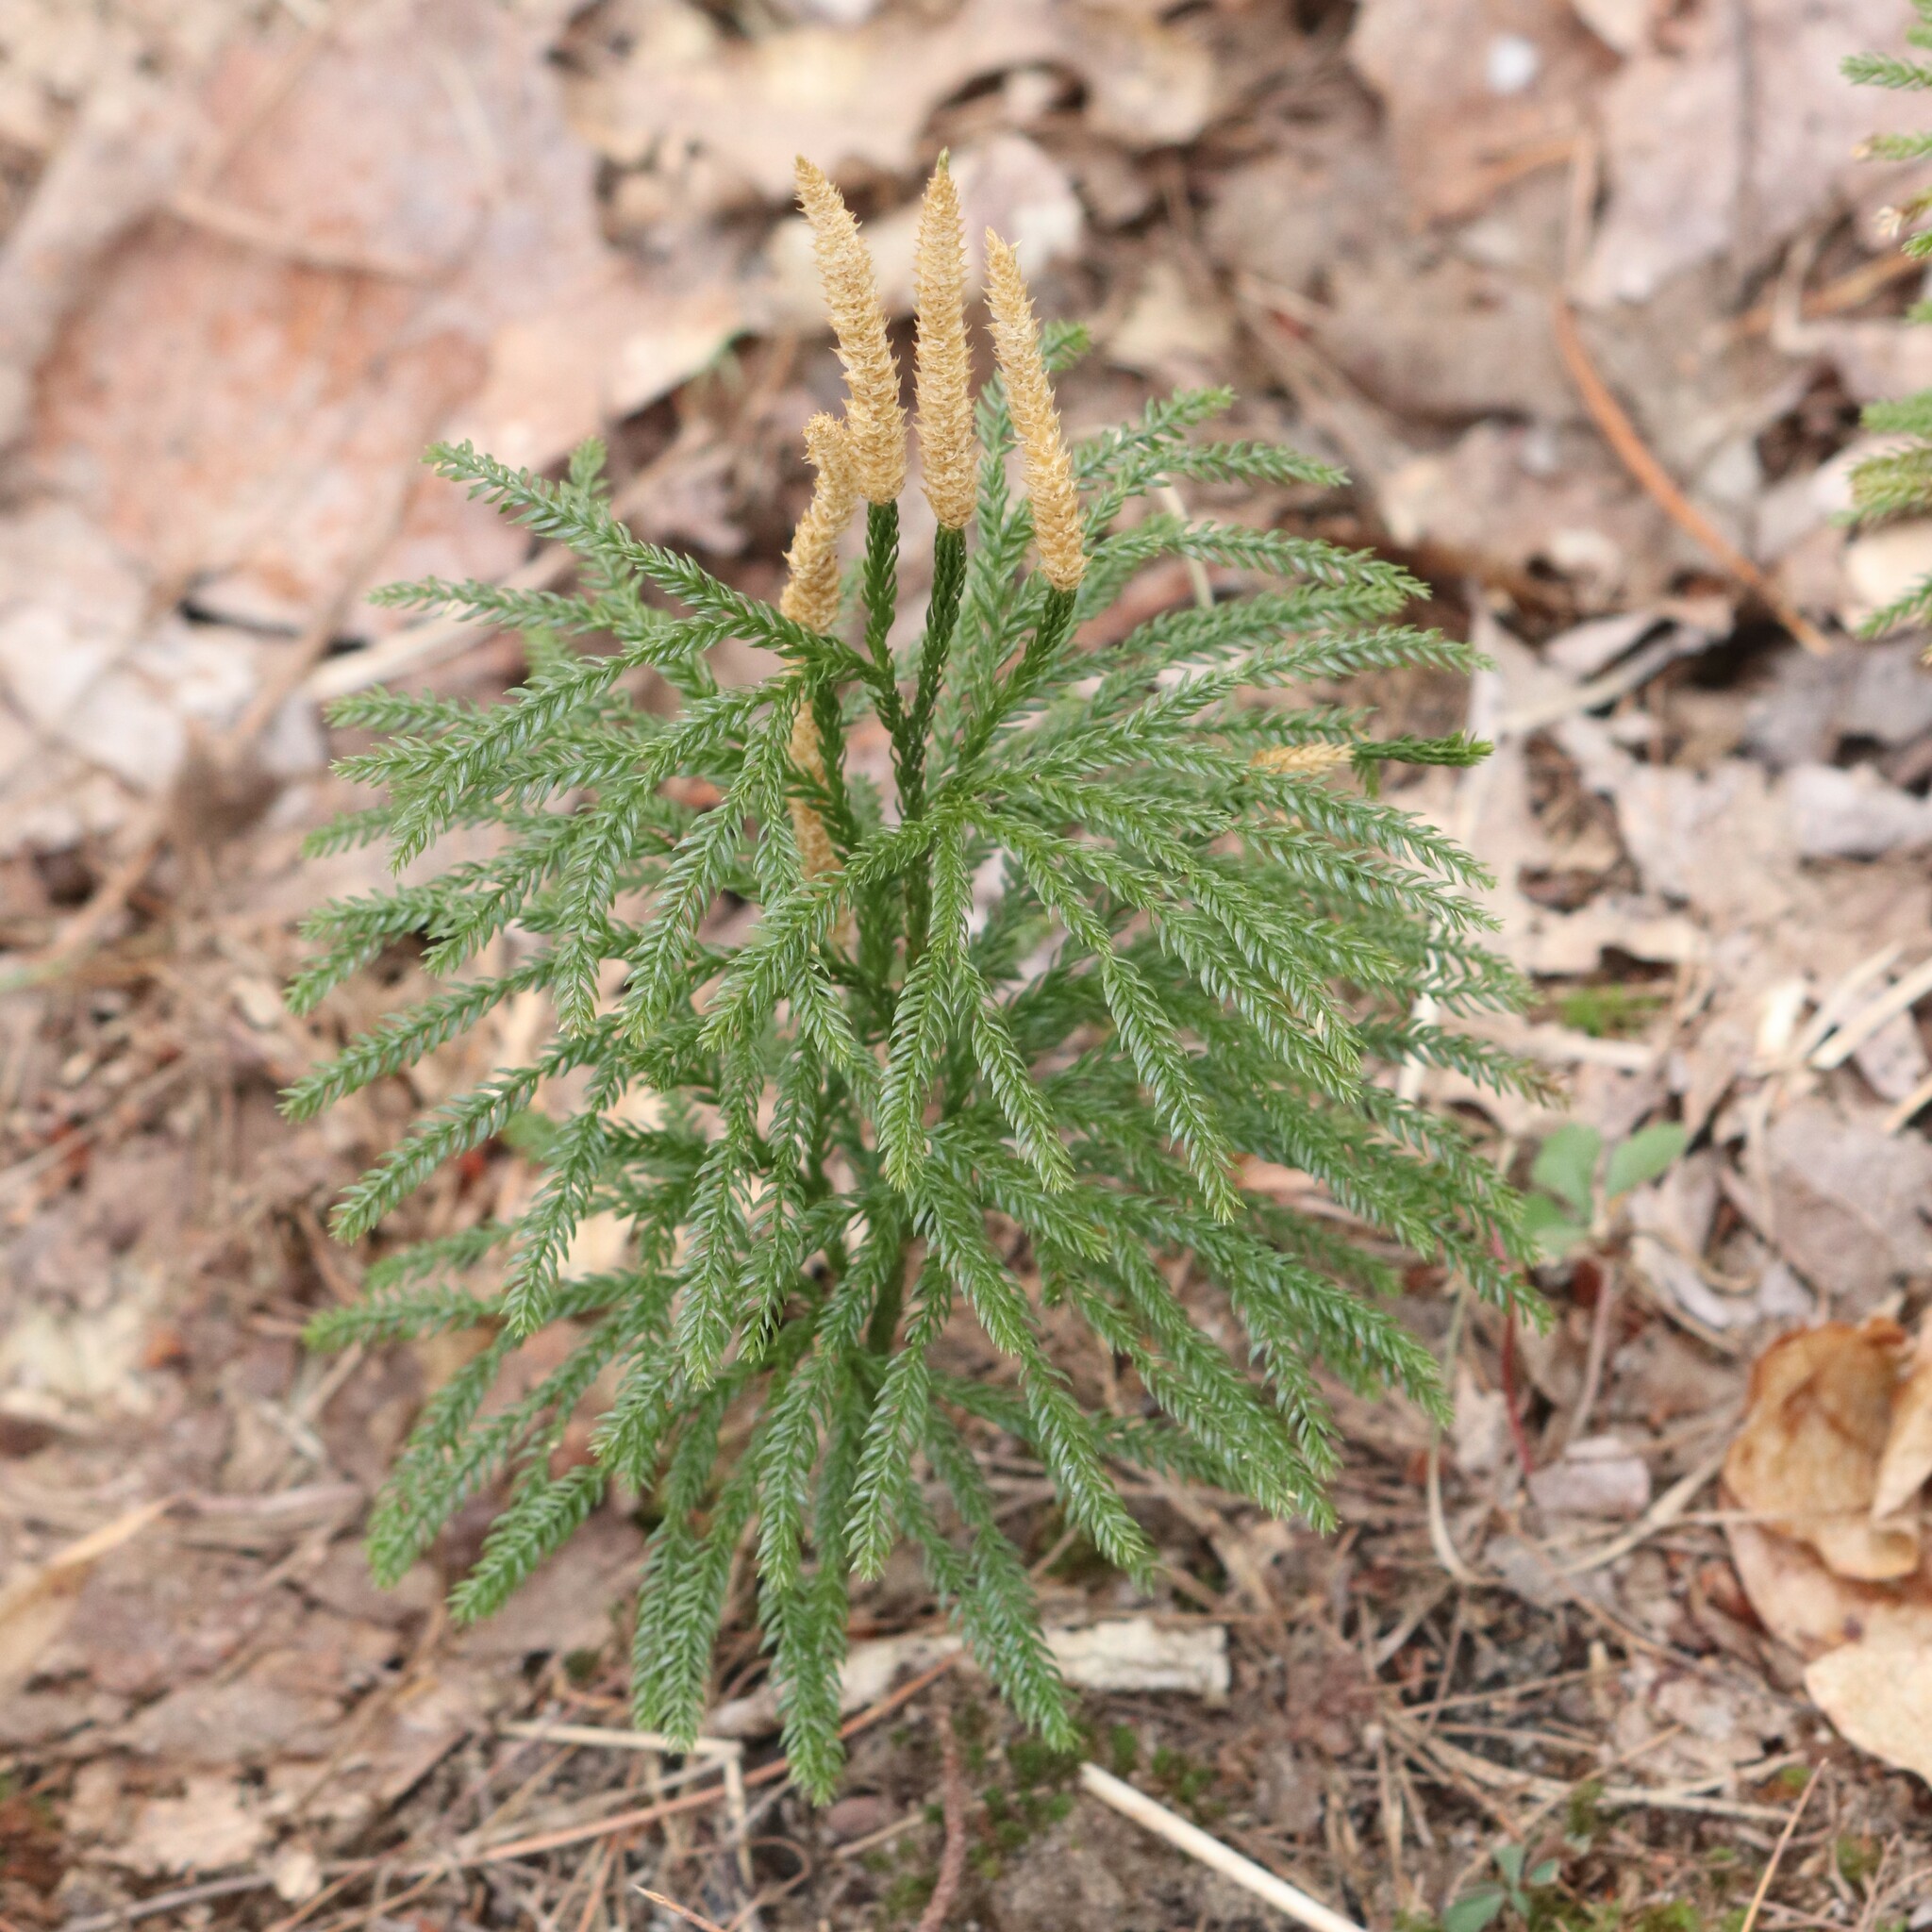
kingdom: Plantae
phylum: Tracheophyta
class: Lycopodiopsida
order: Lycopodiales
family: Lycopodiaceae
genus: Dendrolycopodium
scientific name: Dendrolycopodium obscurum
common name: Common ground-pine
